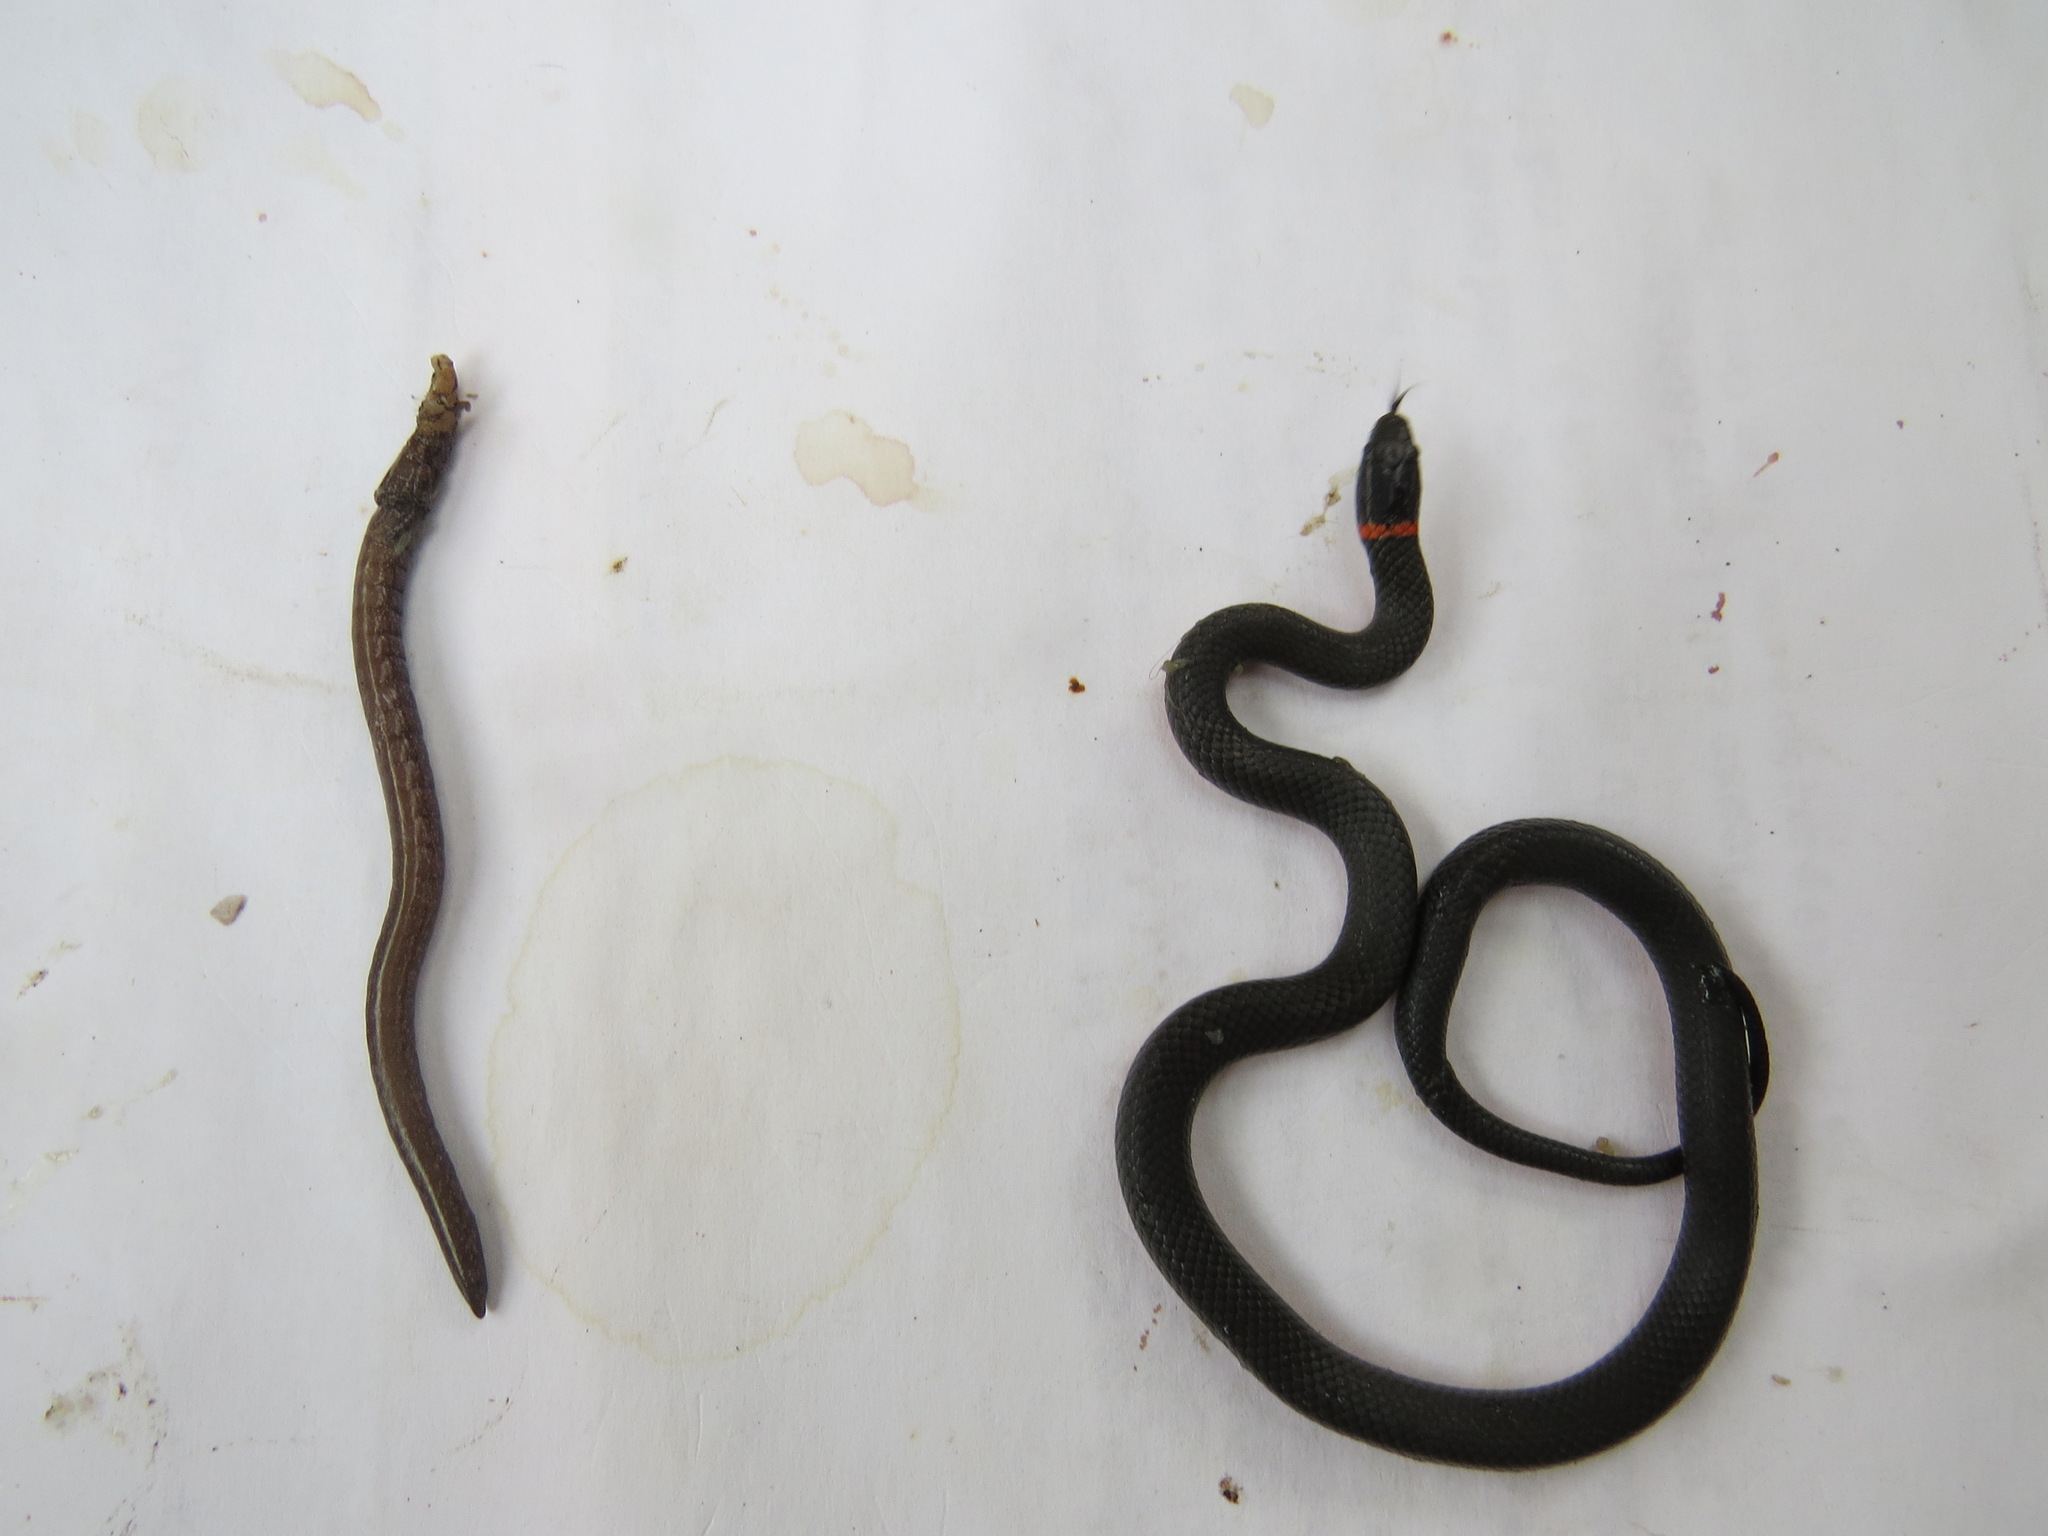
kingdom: Animalia
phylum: Chordata
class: Squamata
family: Colubridae
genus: Diadophis
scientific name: Diadophis punctatus
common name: Ringneck snake
